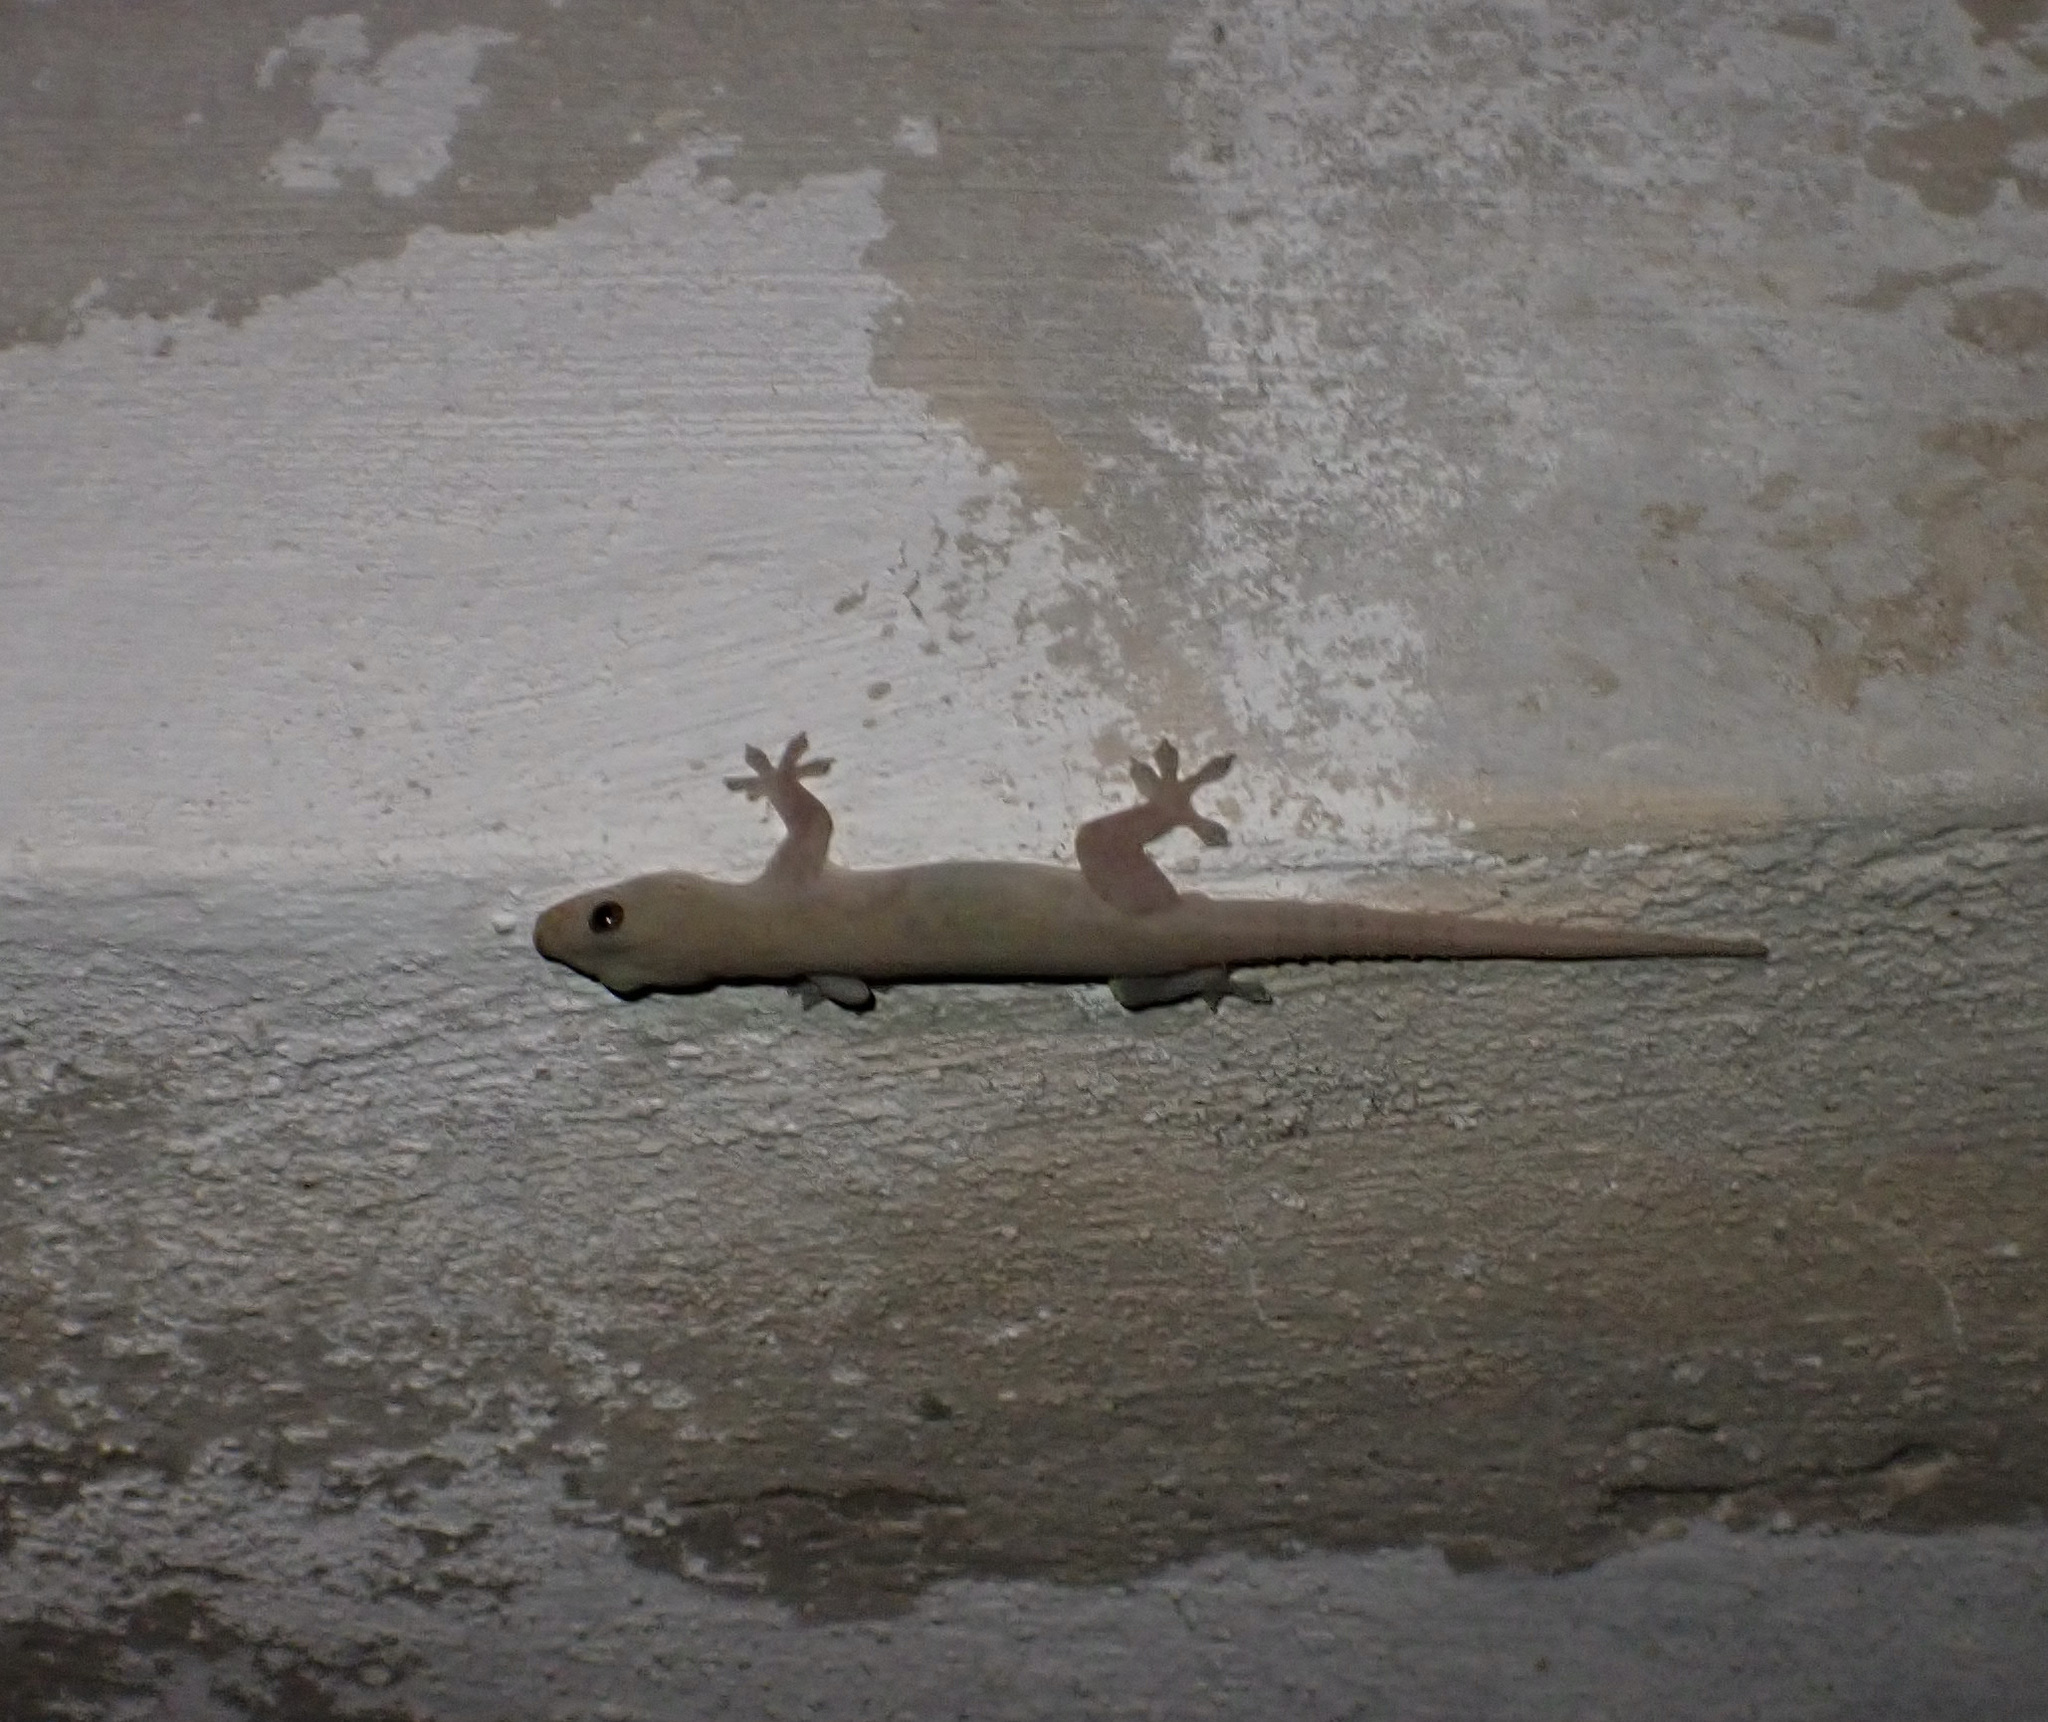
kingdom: Animalia
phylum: Chordata
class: Squamata
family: Gekkonidae
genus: Hemidactylus
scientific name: Hemidactylus frenatus
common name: Common house gecko
